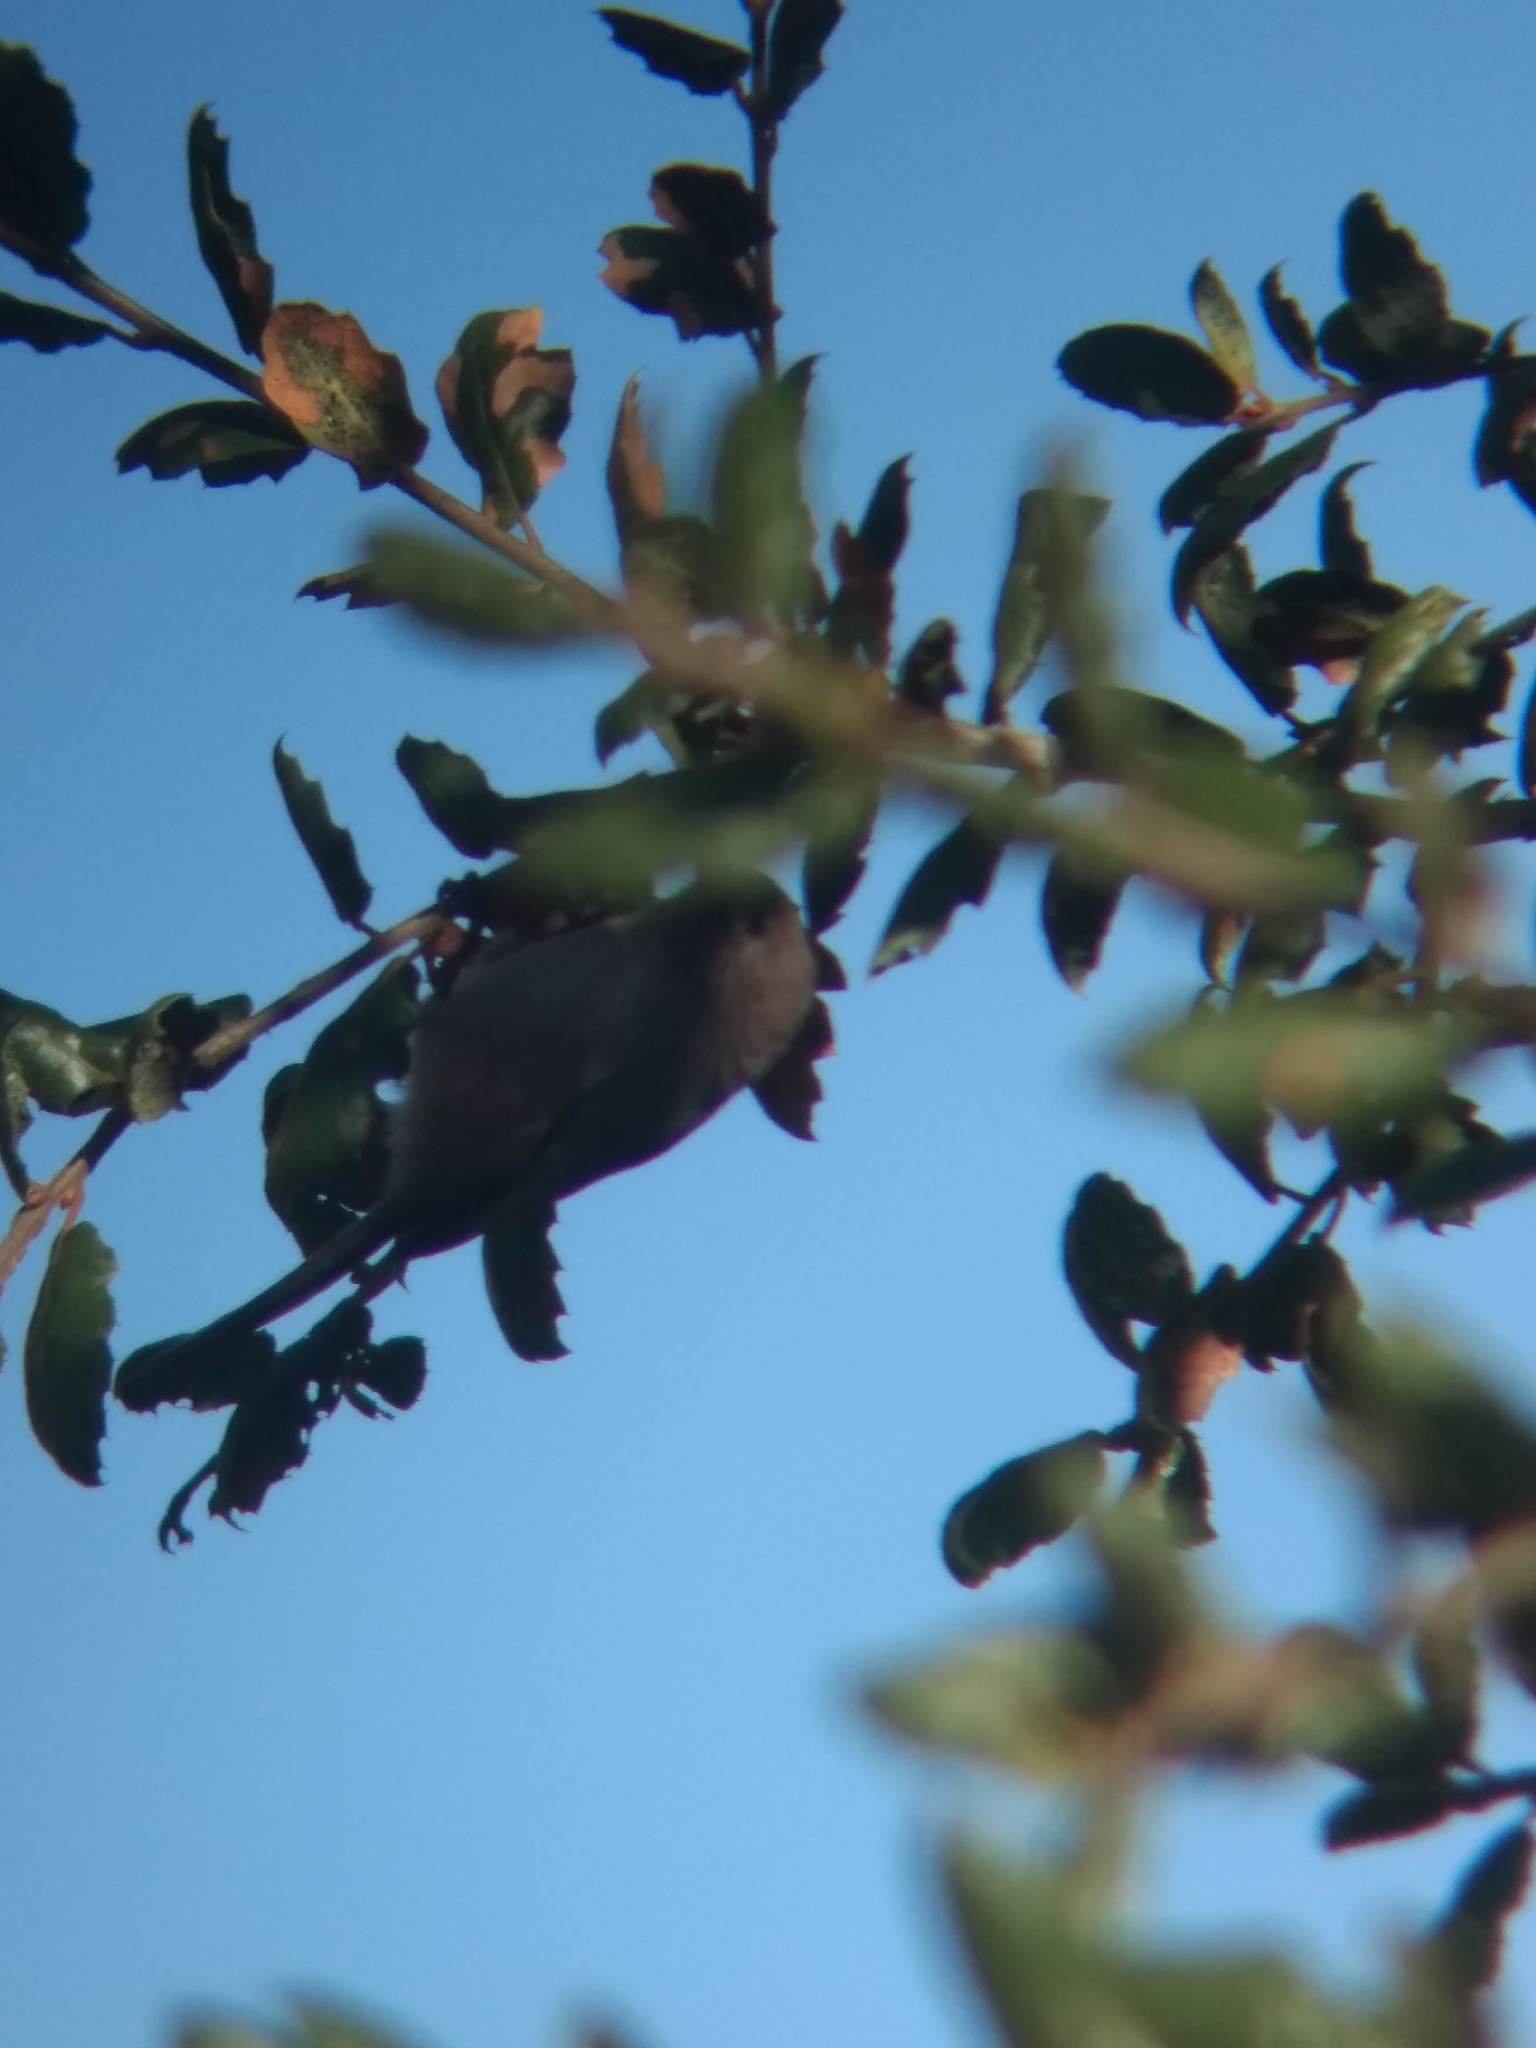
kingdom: Animalia
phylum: Chordata
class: Aves
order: Passeriformes
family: Aegithalidae
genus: Psaltriparus
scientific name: Psaltriparus minimus
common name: American bushtit
